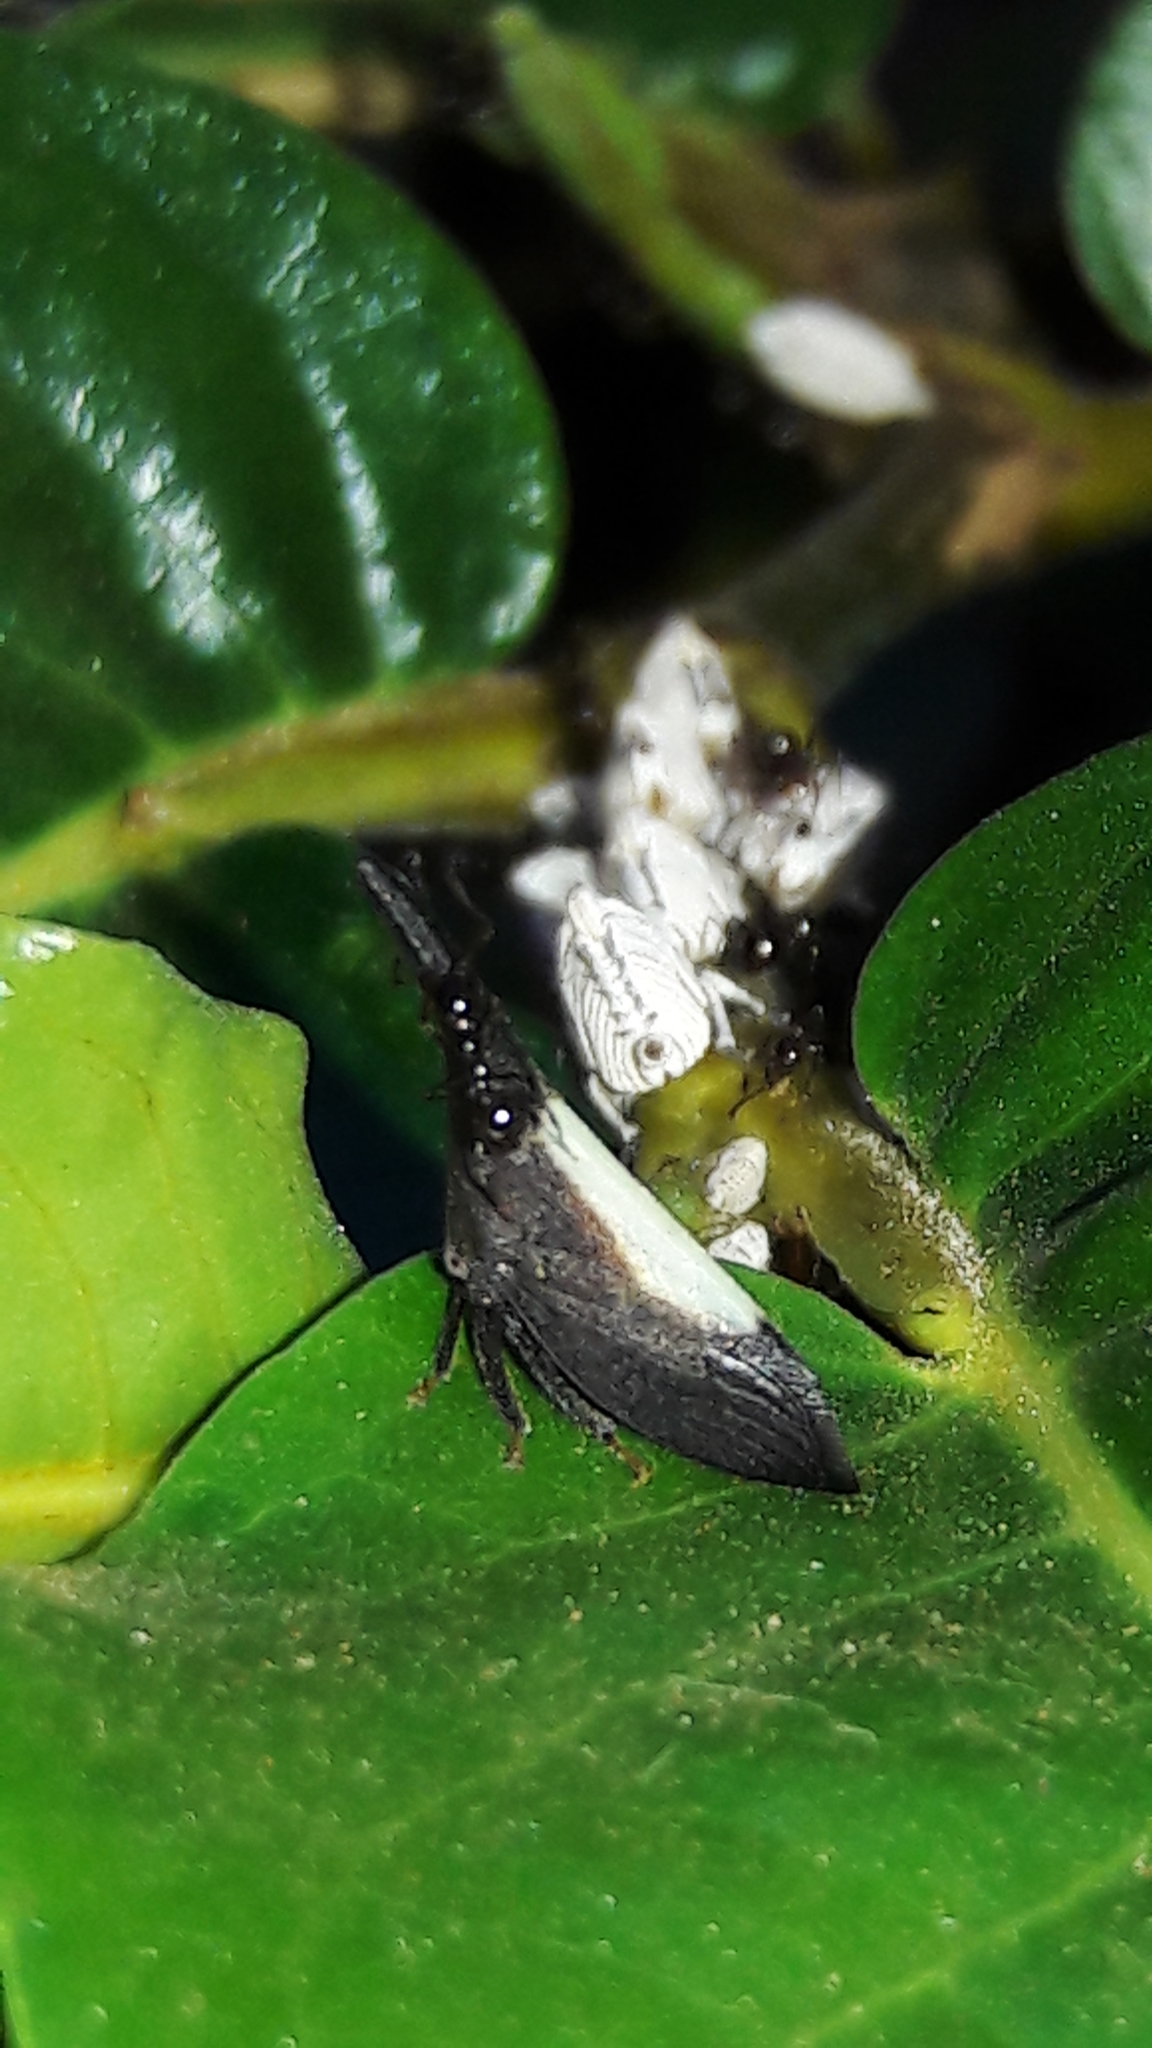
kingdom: Animalia
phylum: Arthropoda
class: Insecta
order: Hemiptera
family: Membracidae
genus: Enchenopa
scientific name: Enchenopa albidorsa
